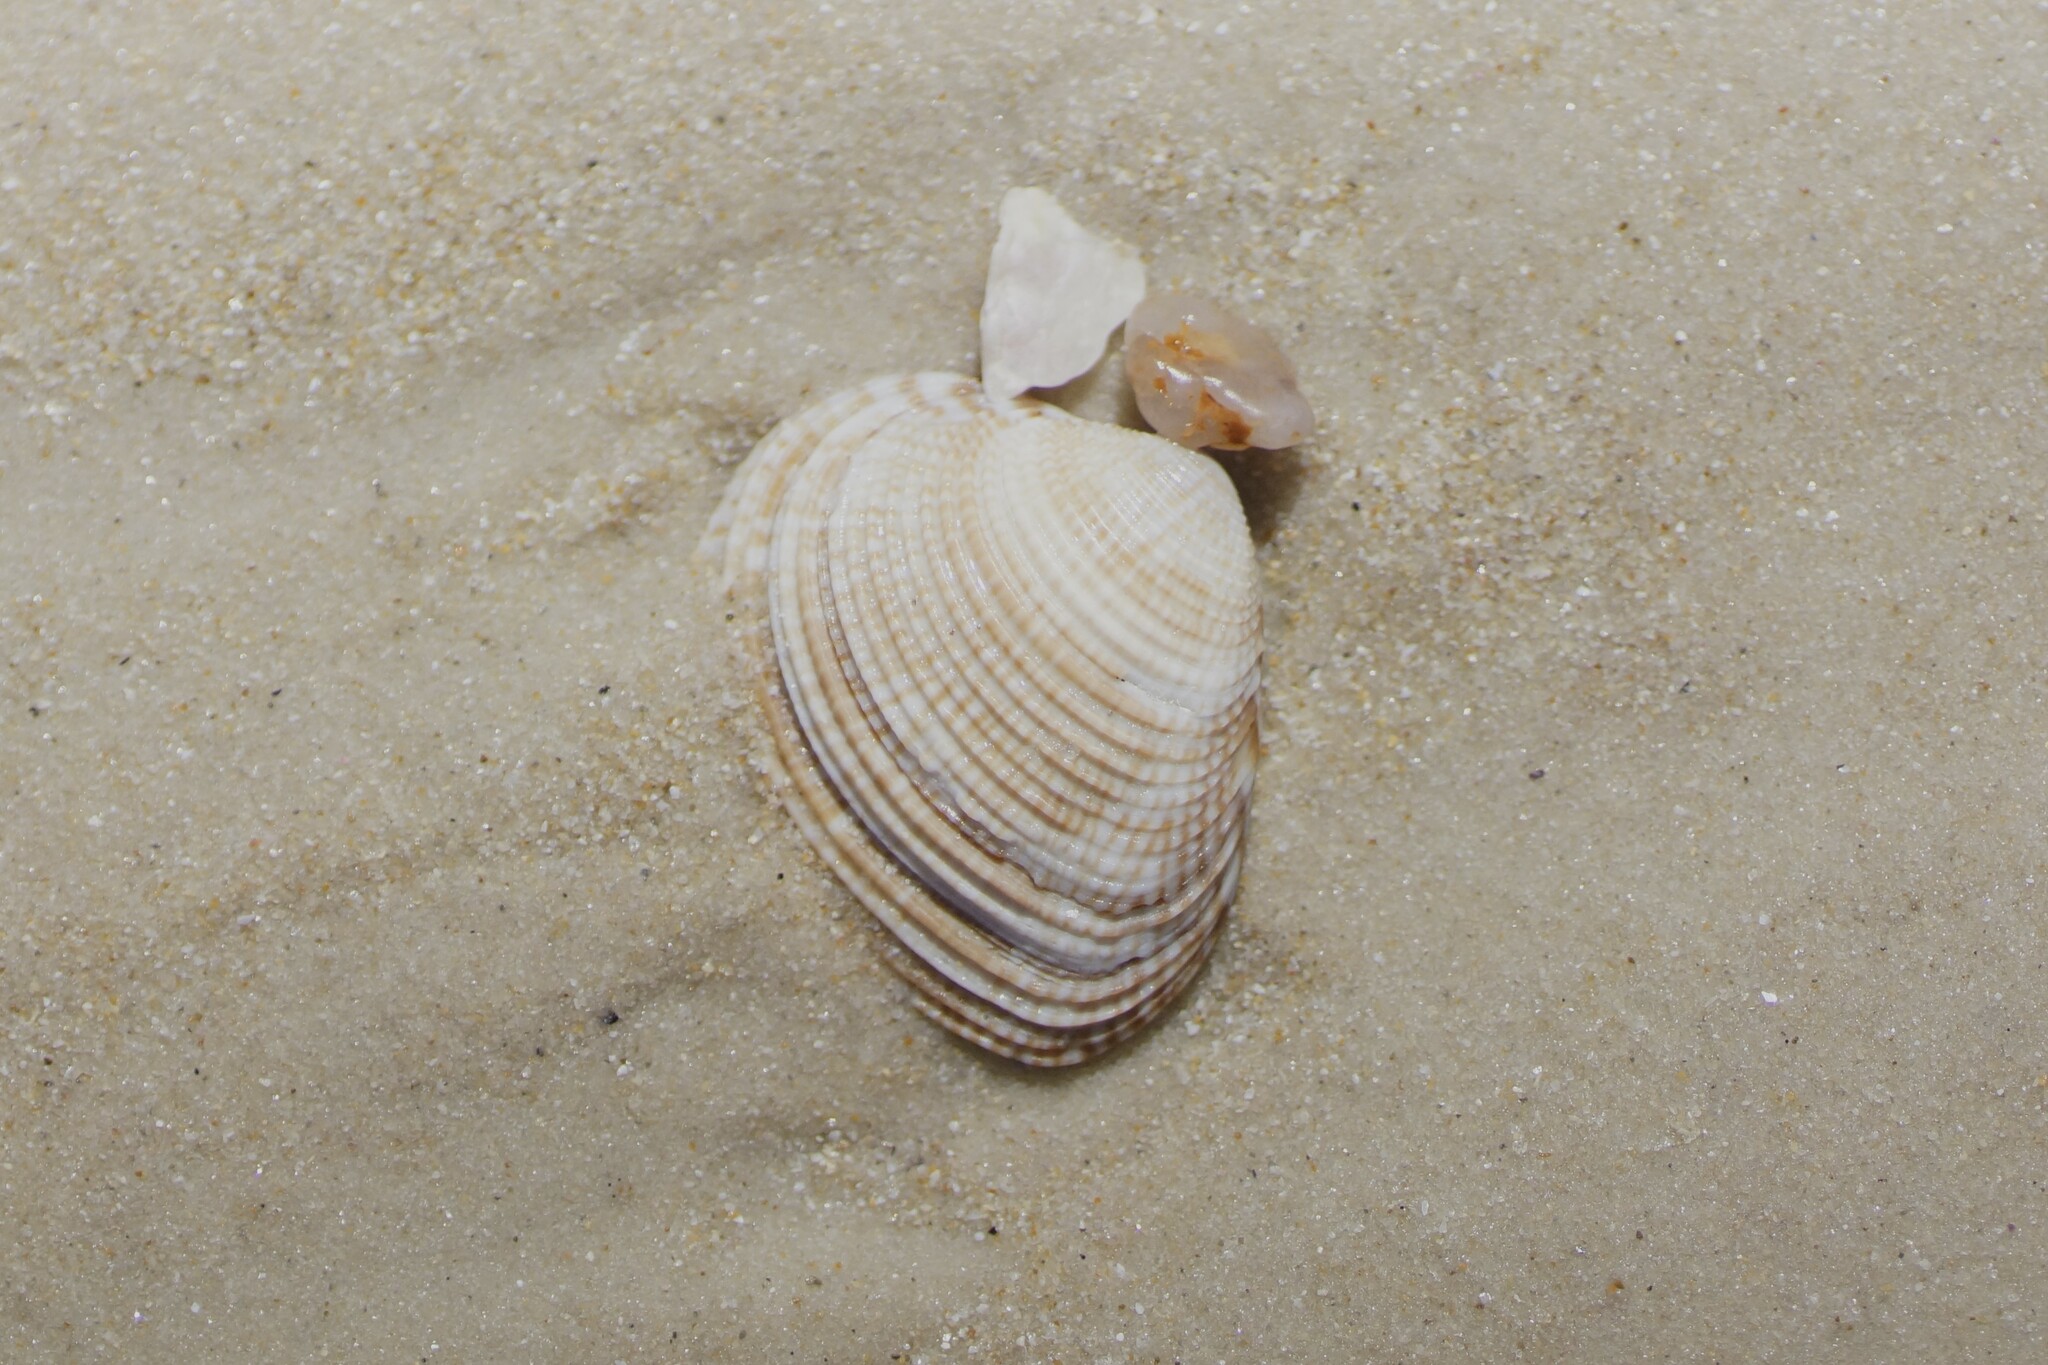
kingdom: Animalia
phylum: Mollusca
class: Bivalvia
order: Venerida
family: Veneridae
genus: Tawera
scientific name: Tawera gallinula
